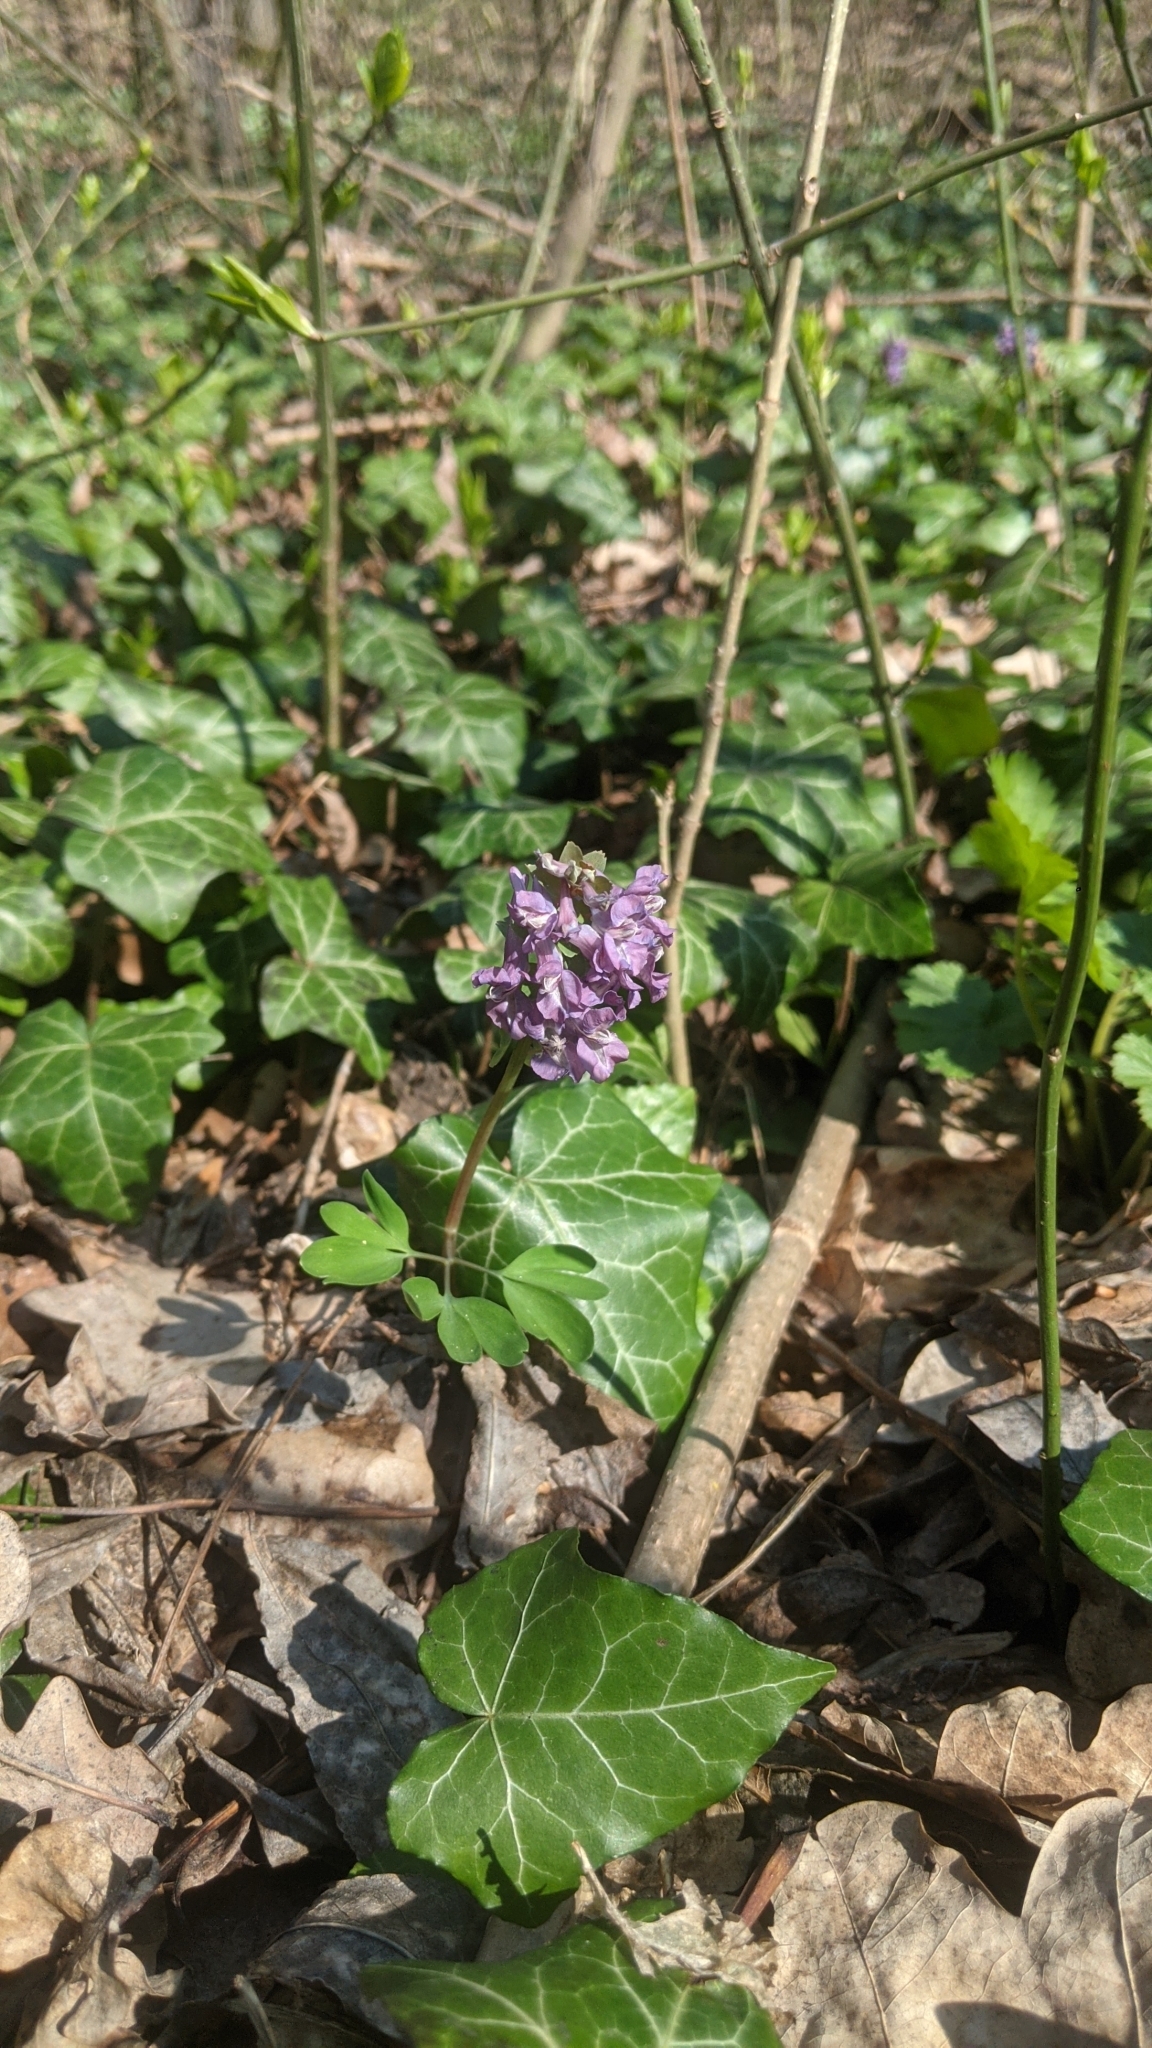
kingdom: Plantae
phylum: Tracheophyta
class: Magnoliopsida
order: Ranunculales
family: Papaveraceae
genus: Corydalis
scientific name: Corydalis solida
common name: Bird-in-a-bush
